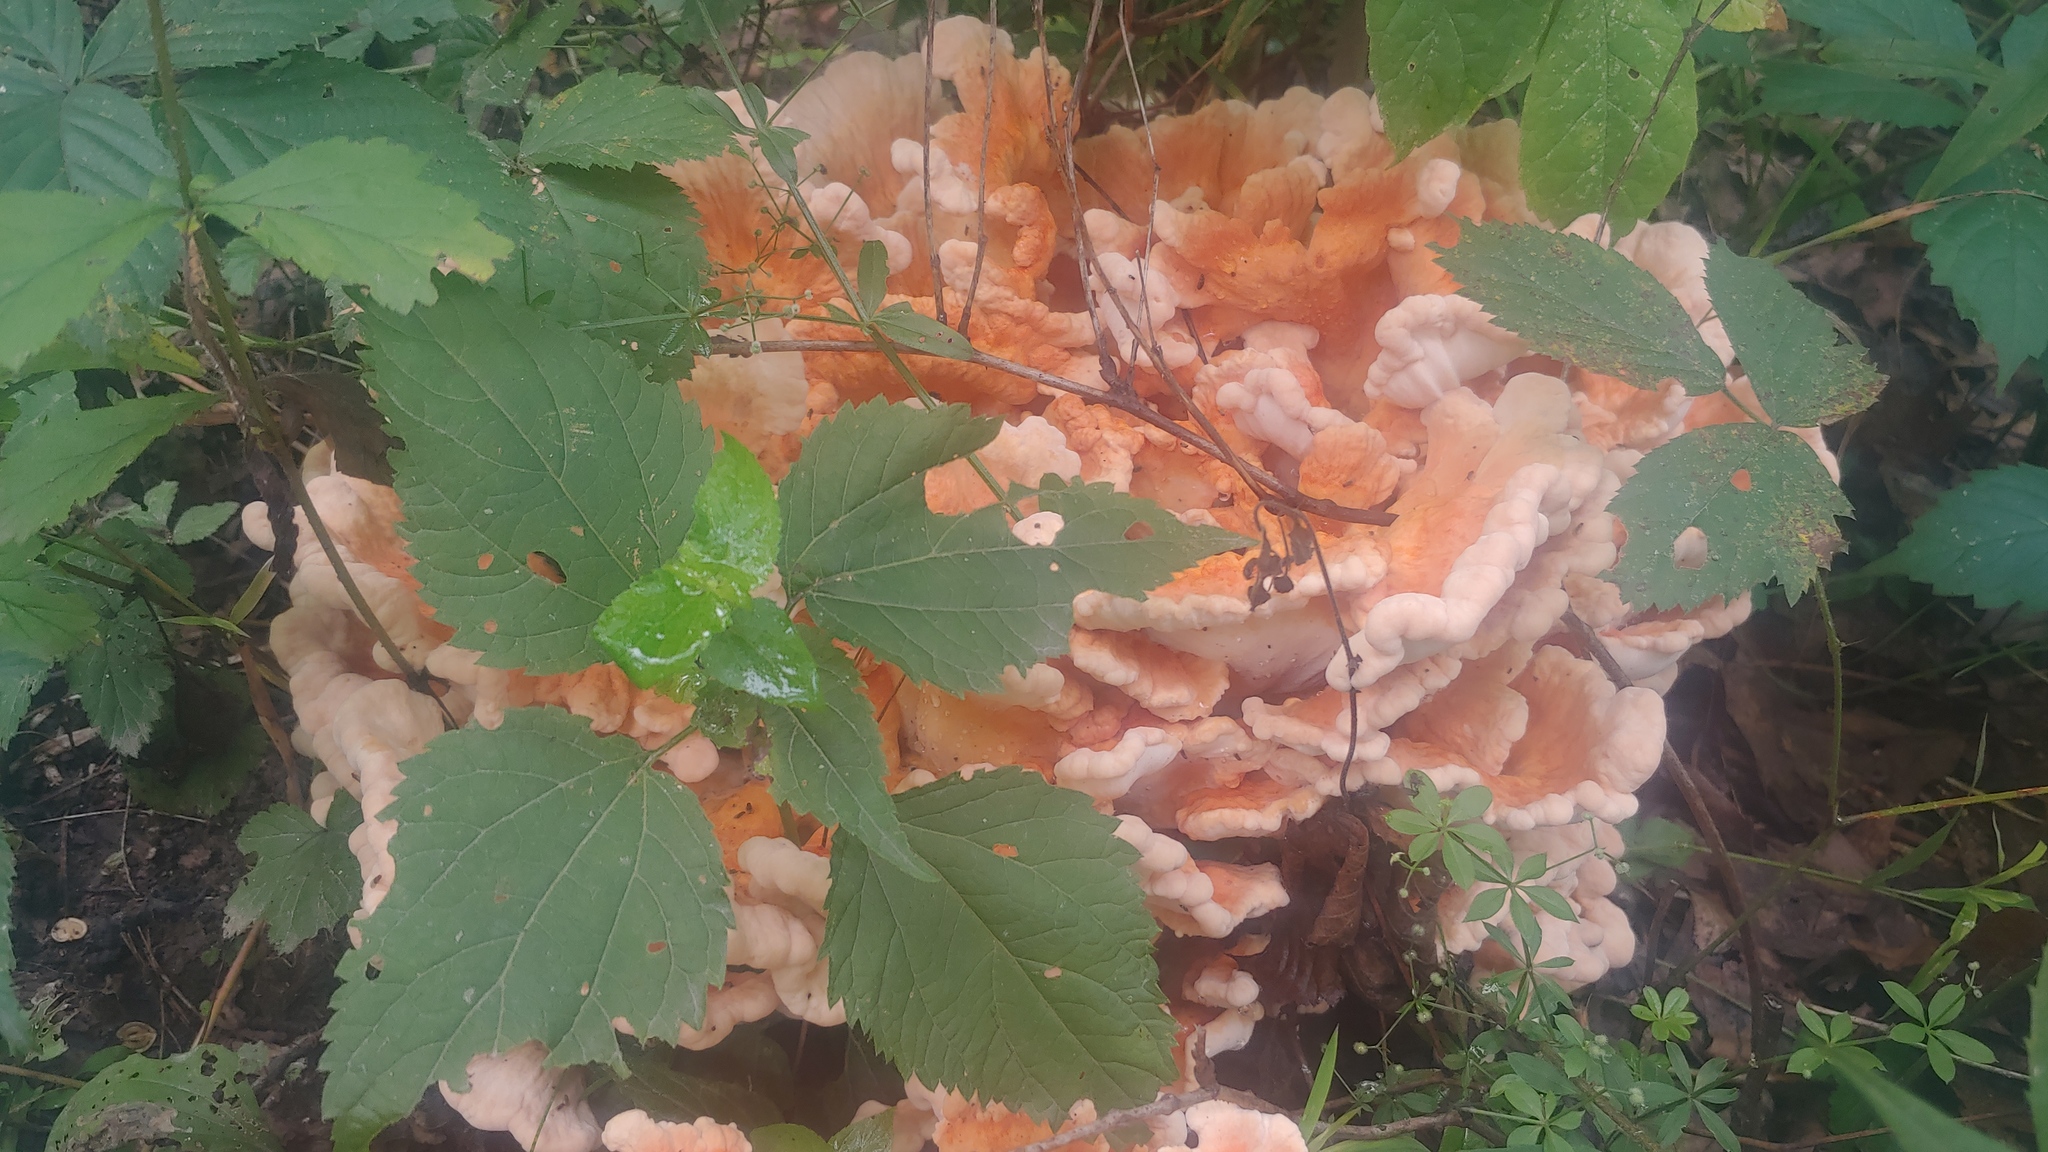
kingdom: Fungi
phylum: Basidiomycota
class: Agaricomycetes
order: Polyporales
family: Laetiporaceae
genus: Laetiporus
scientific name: Laetiporus sulphureus
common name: Chicken of the woods
